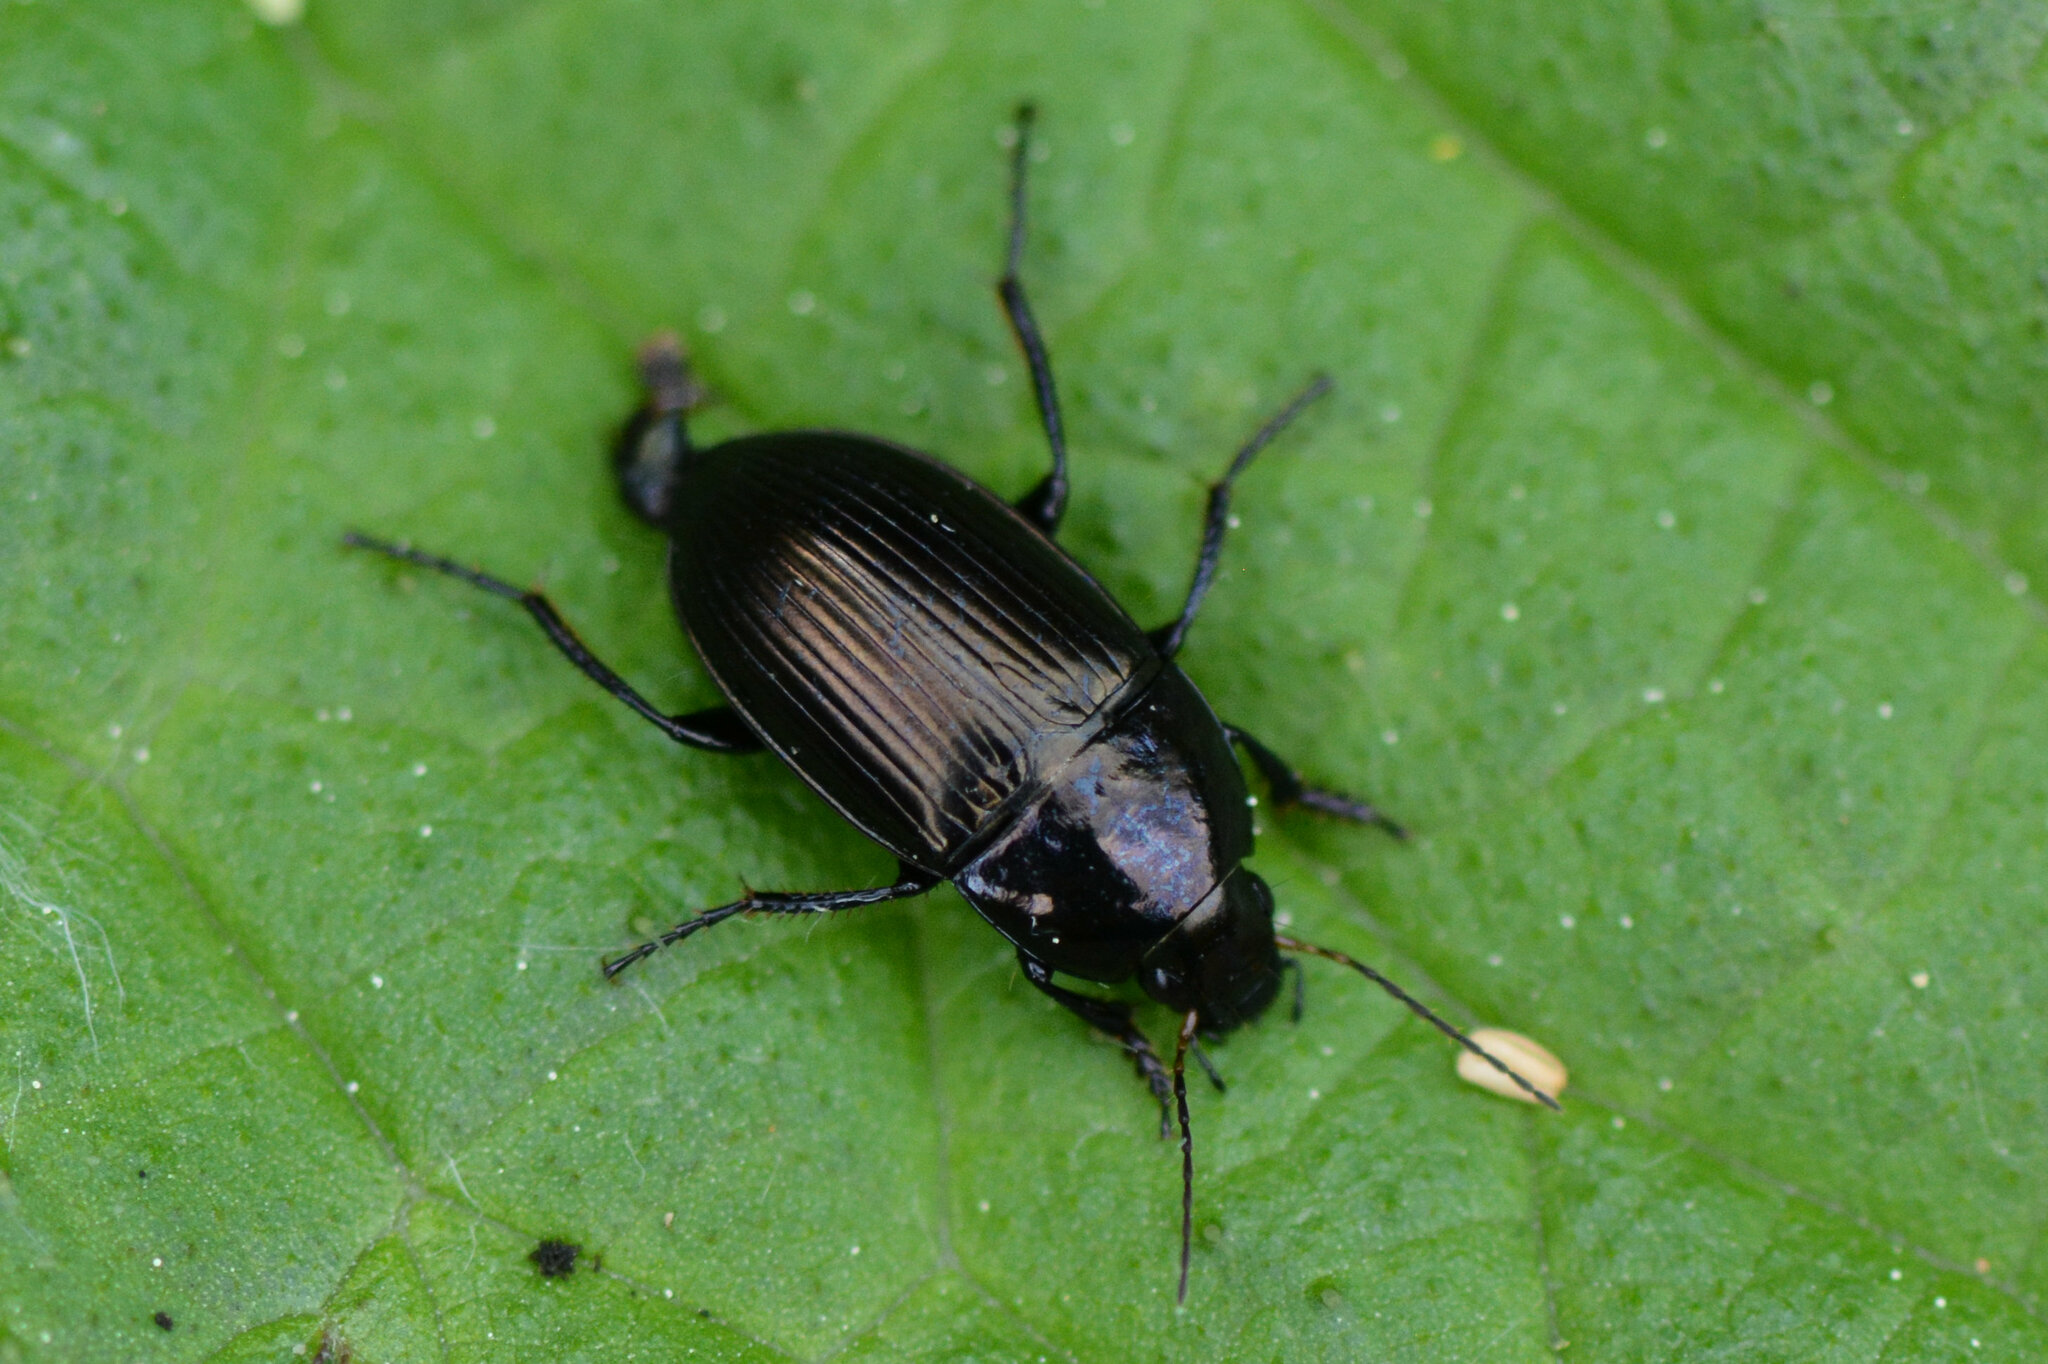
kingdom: Animalia
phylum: Arthropoda
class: Insecta
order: Coleoptera
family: Carabidae
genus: Amara
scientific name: Amara ovata
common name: Ovate harp ground beetle
